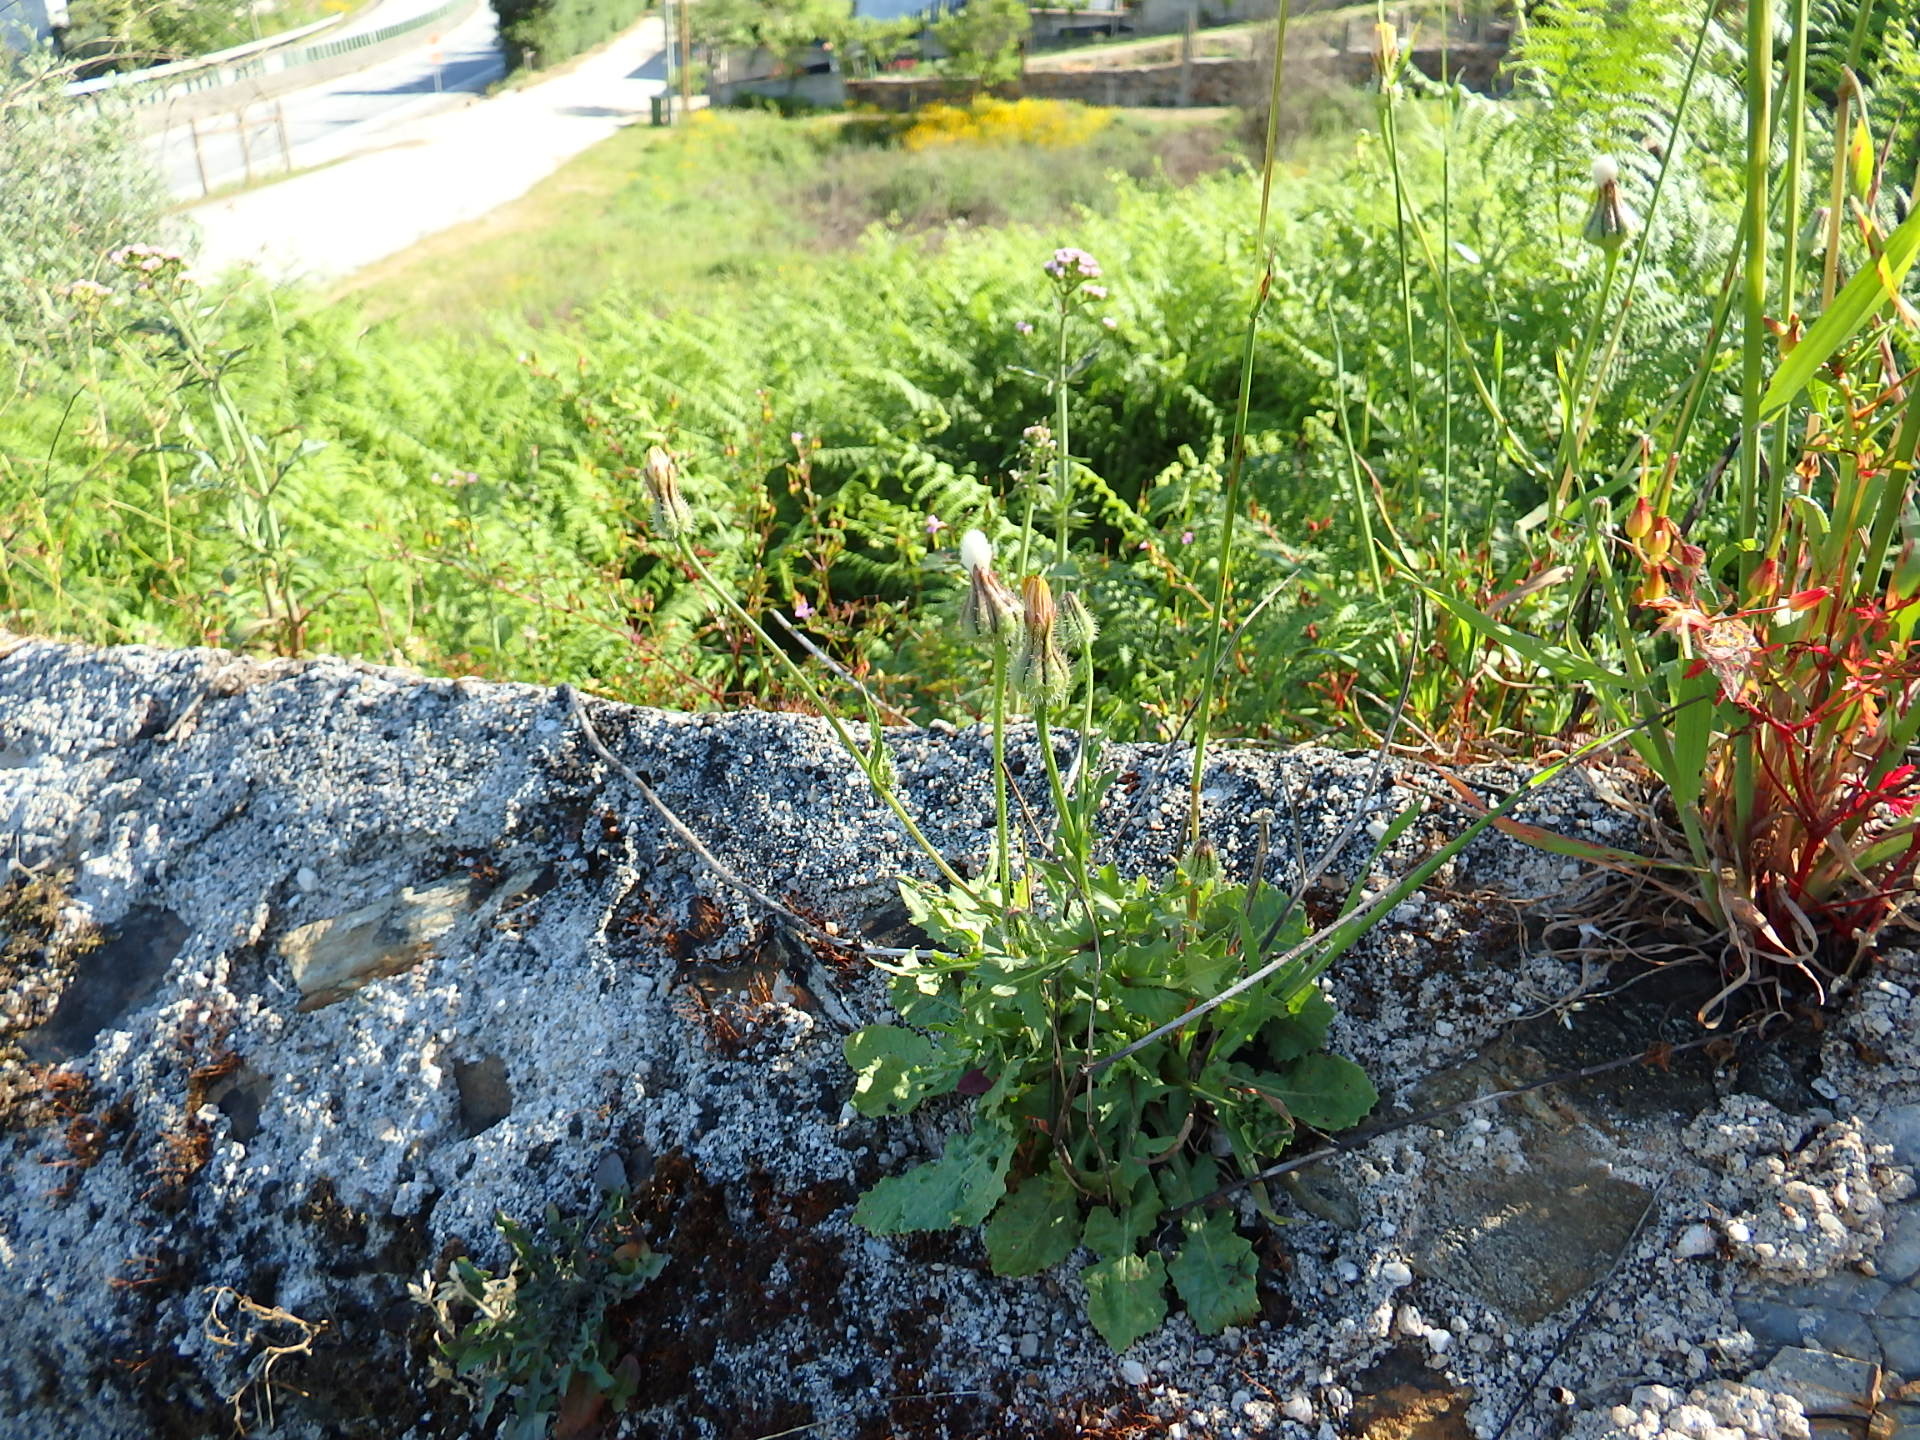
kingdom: Plantae
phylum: Tracheophyta
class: Magnoliopsida
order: Asterales
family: Asteraceae
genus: Urospermum
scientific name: Urospermum picroides
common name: False hawkbit
